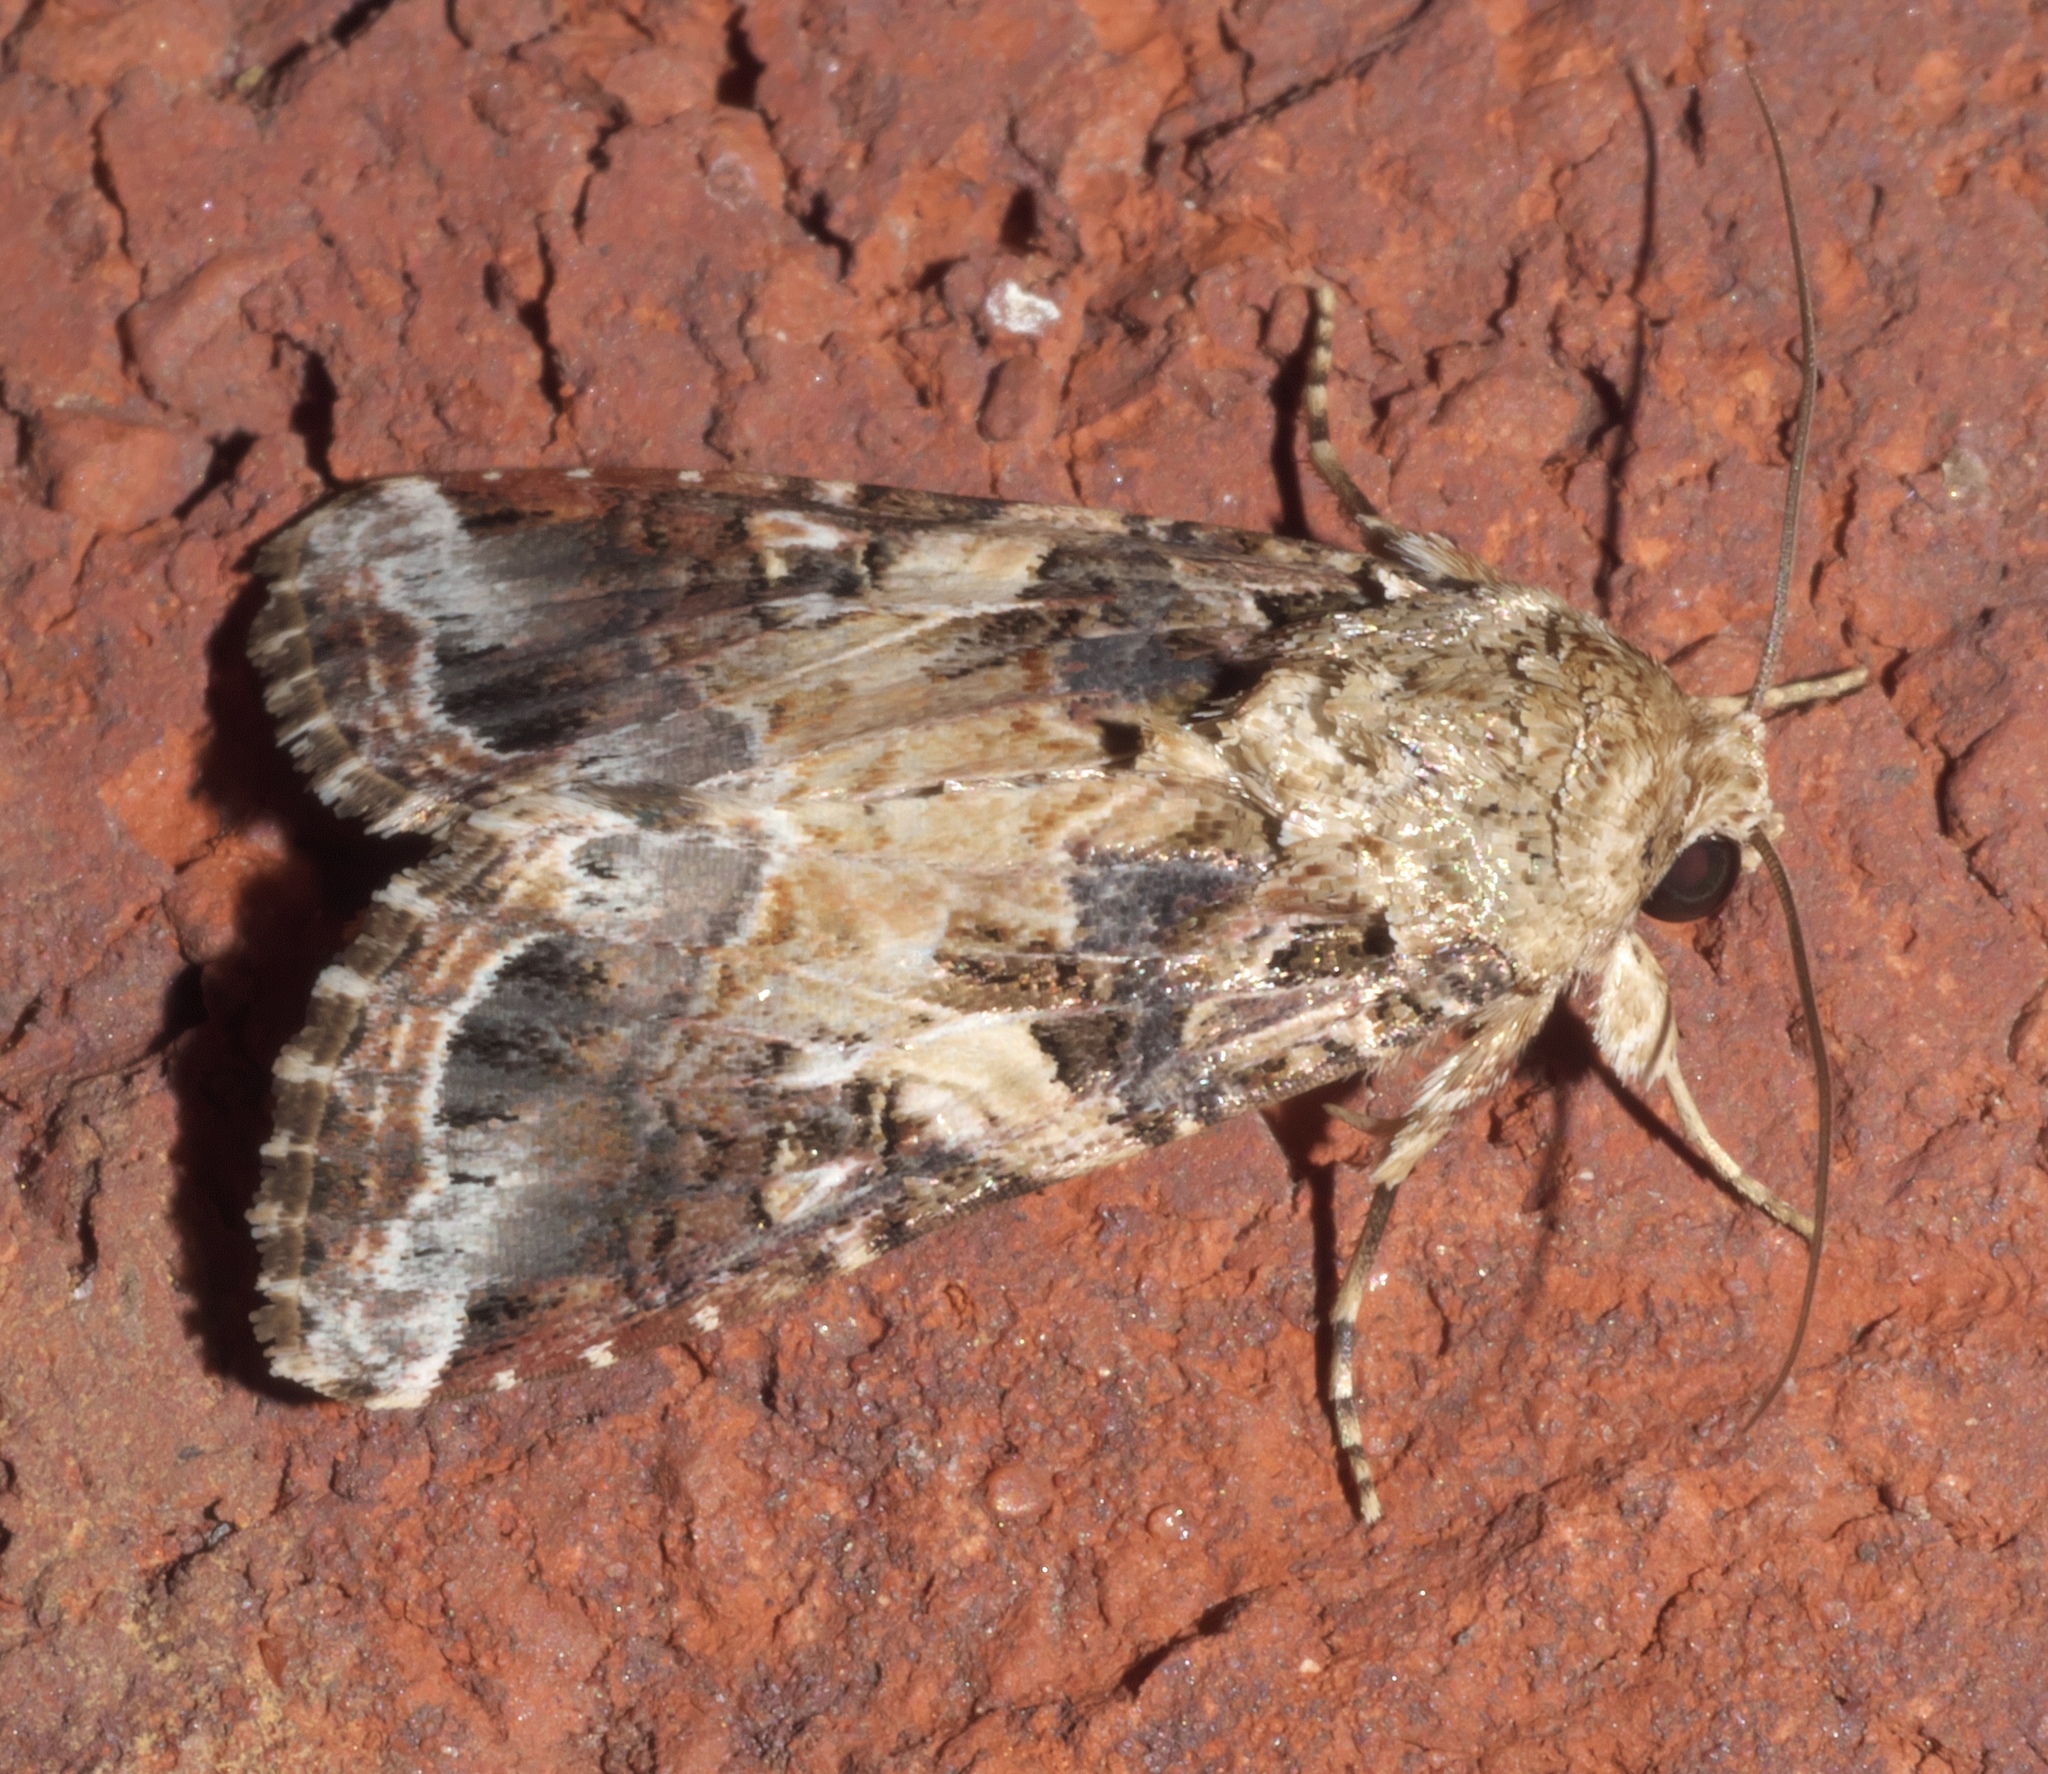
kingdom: Animalia
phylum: Arthropoda
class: Insecta
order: Lepidoptera
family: Noctuidae
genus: Spodoptera
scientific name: Spodoptera ornithogalli
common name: Yellow-striped armyworm
